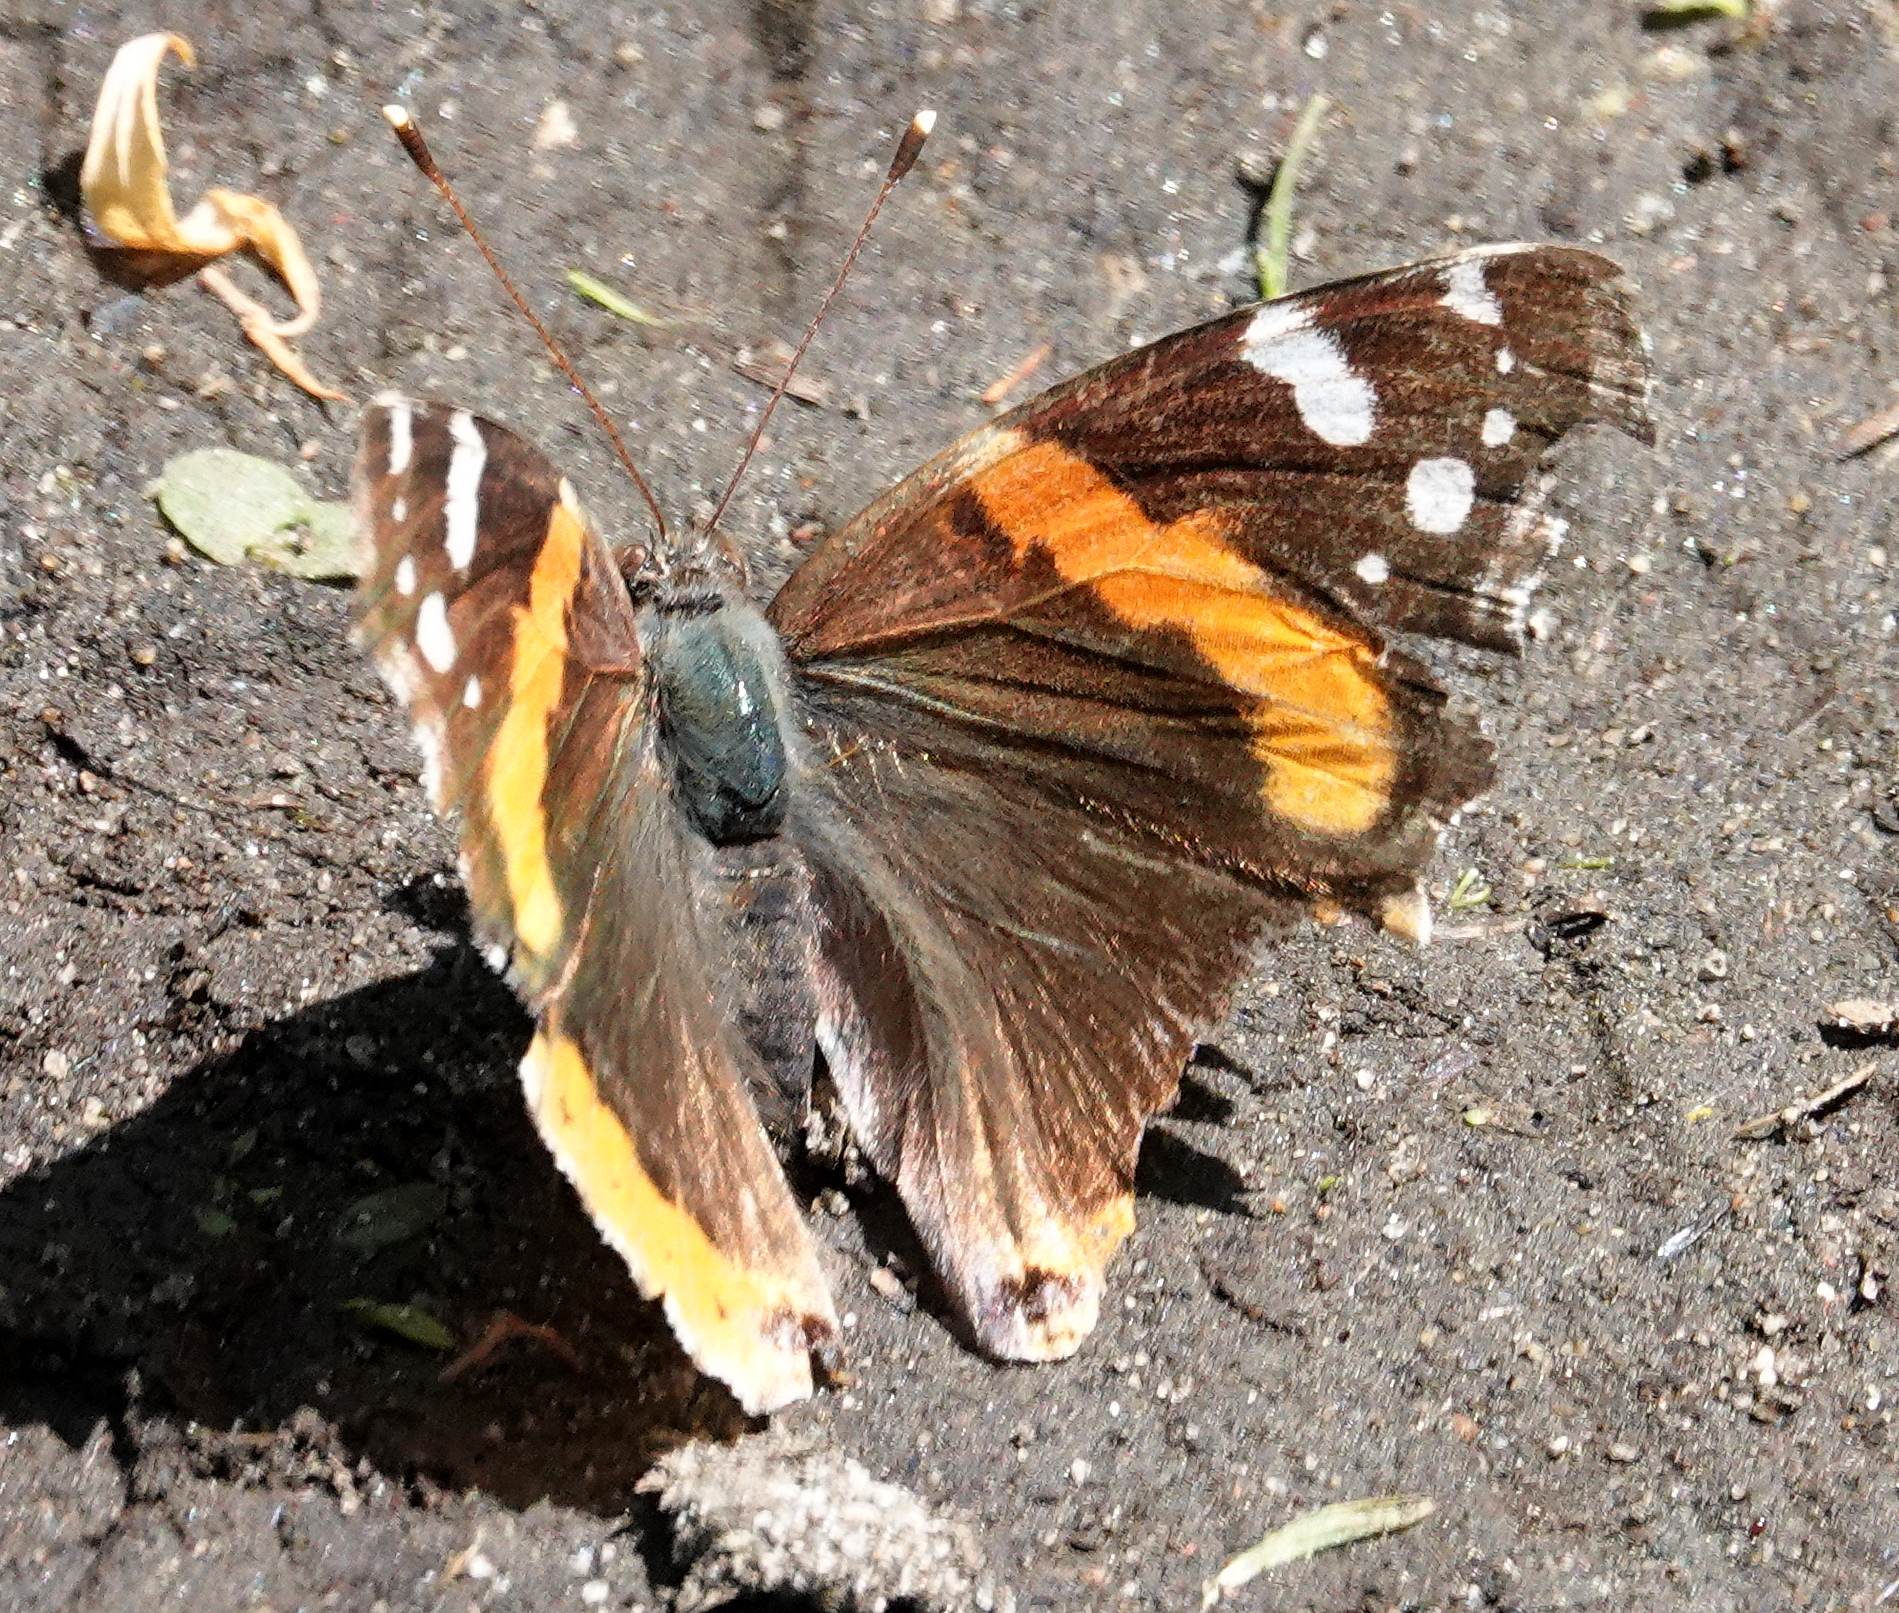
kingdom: Animalia
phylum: Arthropoda
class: Insecta
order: Lepidoptera
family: Nymphalidae
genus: Vanessa
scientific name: Vanessa atalanta
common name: Red admiral
